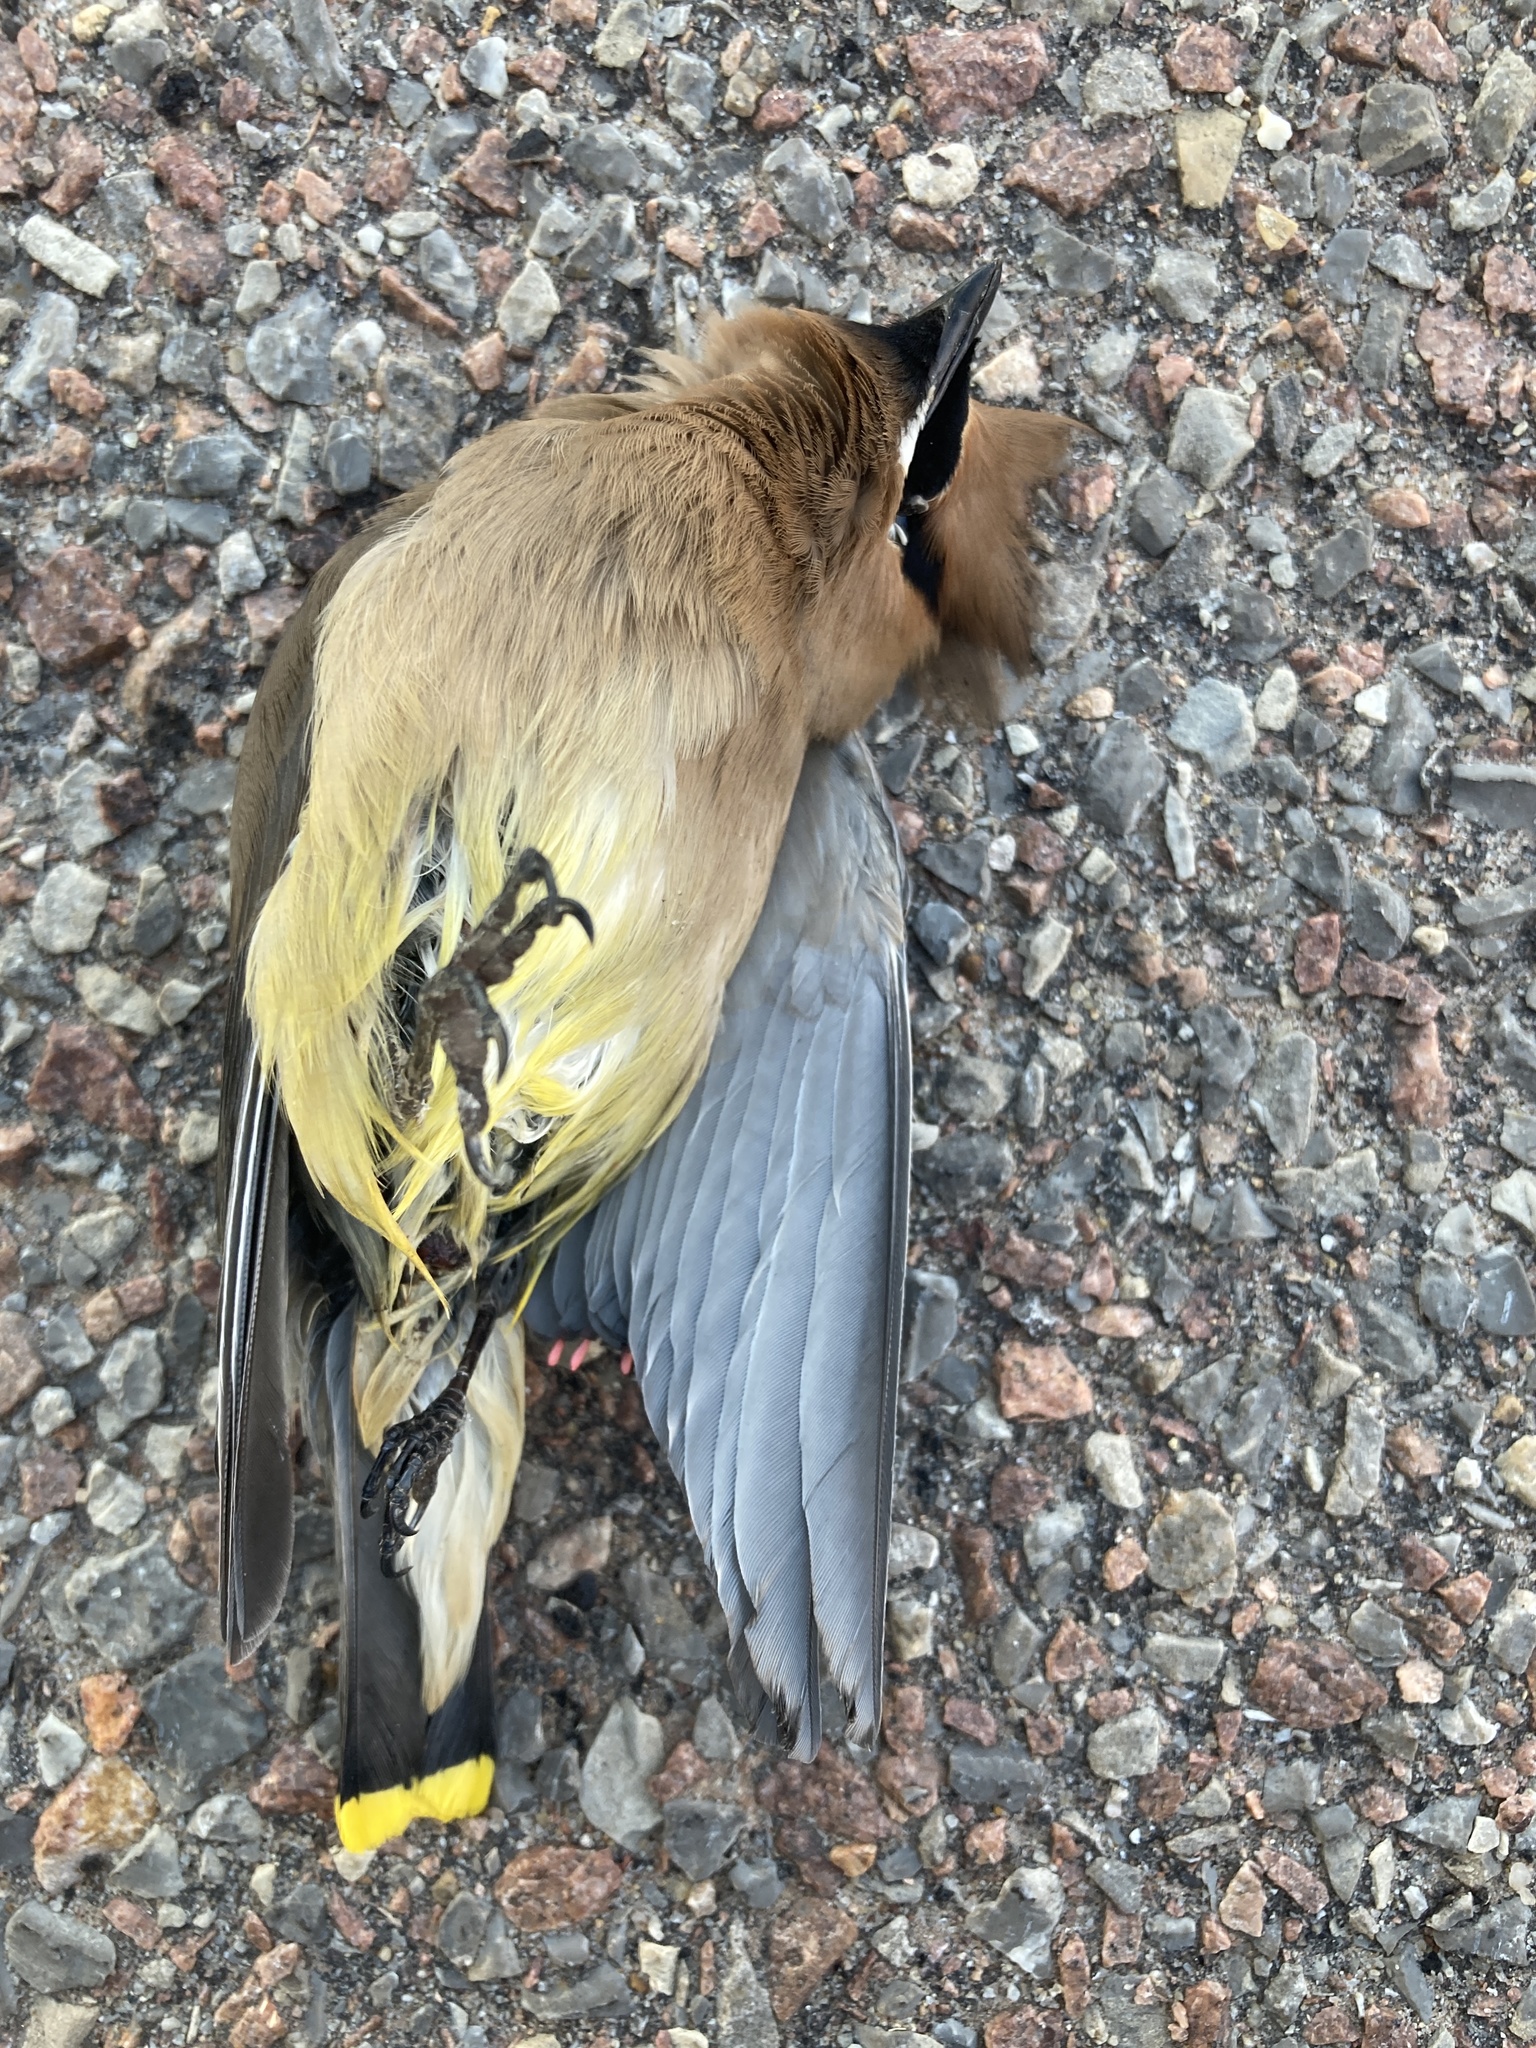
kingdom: Animalia
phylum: Chordata
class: Aves
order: Passeriformes
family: Bombycillidae
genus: Bombycilla
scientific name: Bombycilla cedrorum
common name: Cedar waxwing
